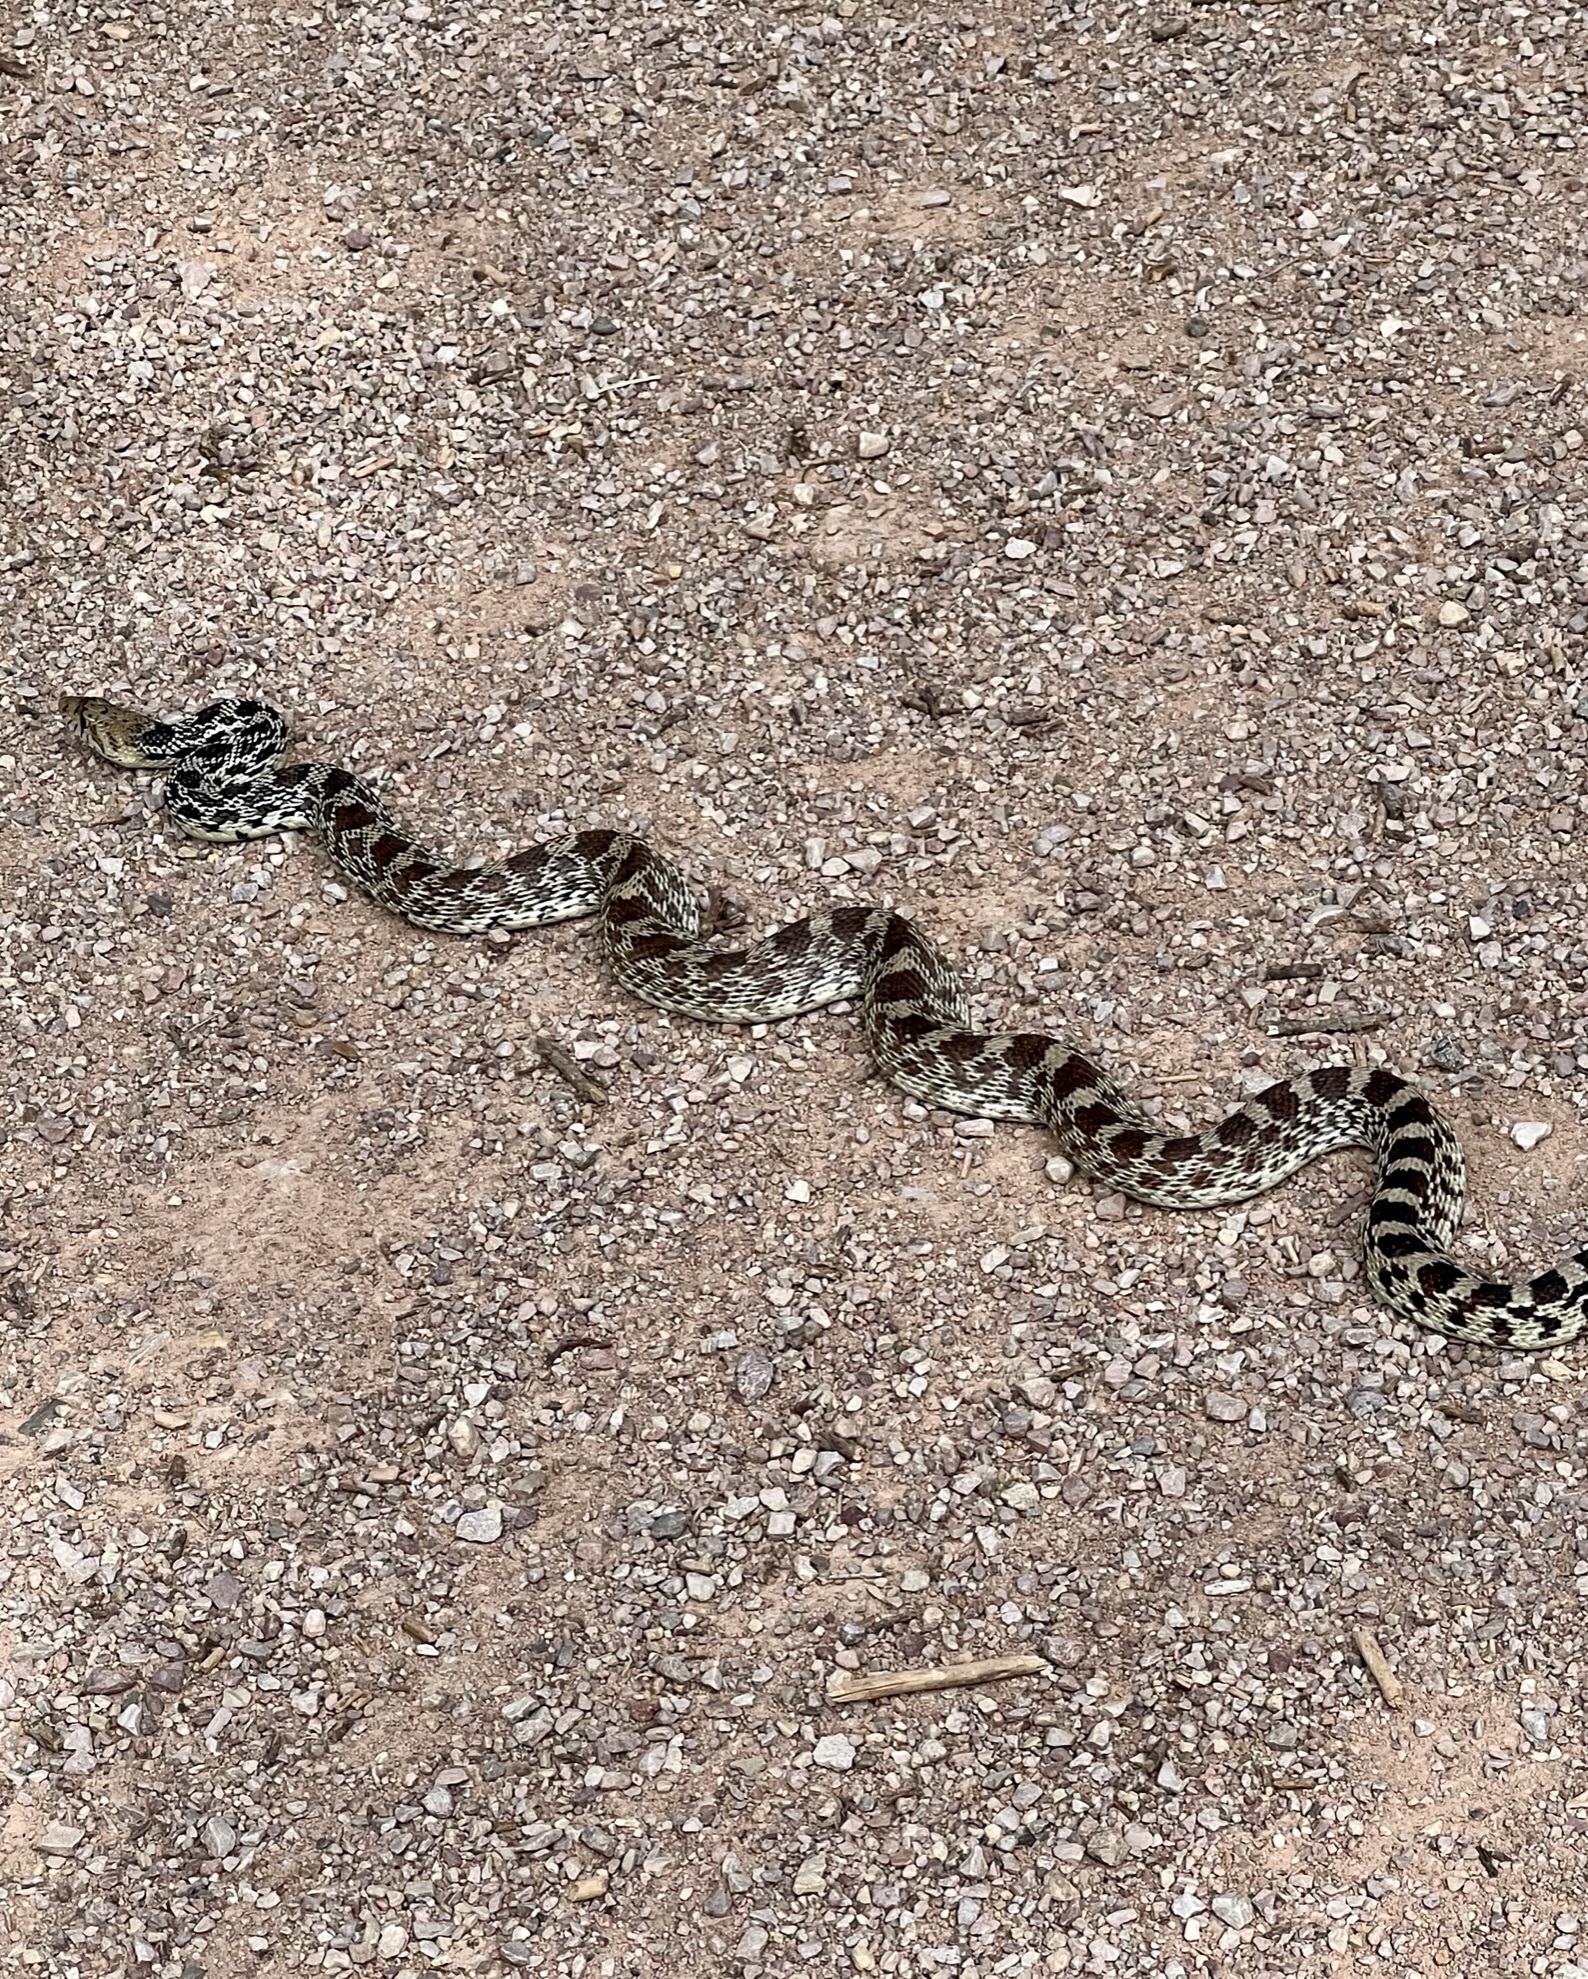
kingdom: Animalia
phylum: Chordata
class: Squamata
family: Colubridae
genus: Pituophis
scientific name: Pituophis catenifer
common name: Gopher snake
